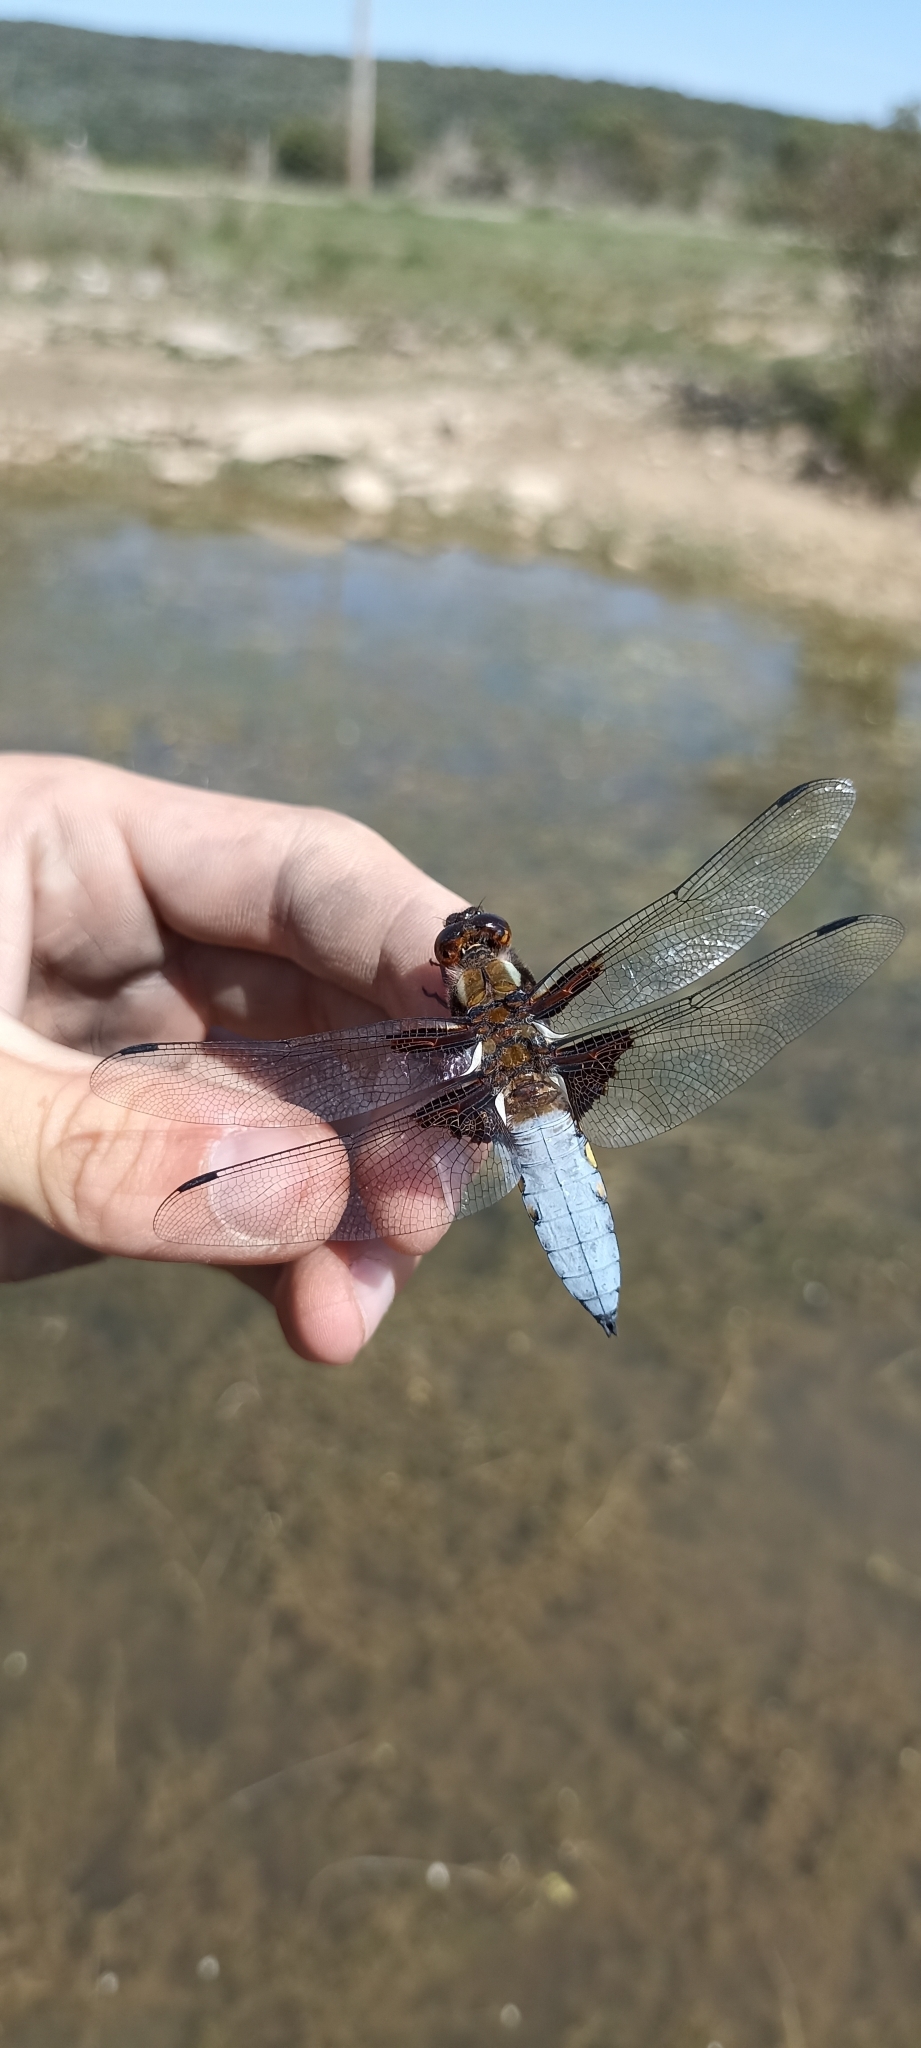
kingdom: Animalia
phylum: Arthropoda
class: Insecta
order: Odonata
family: Libellulidae
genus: Libellula
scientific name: Libellula depressa
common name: Broad-bodied chaser
